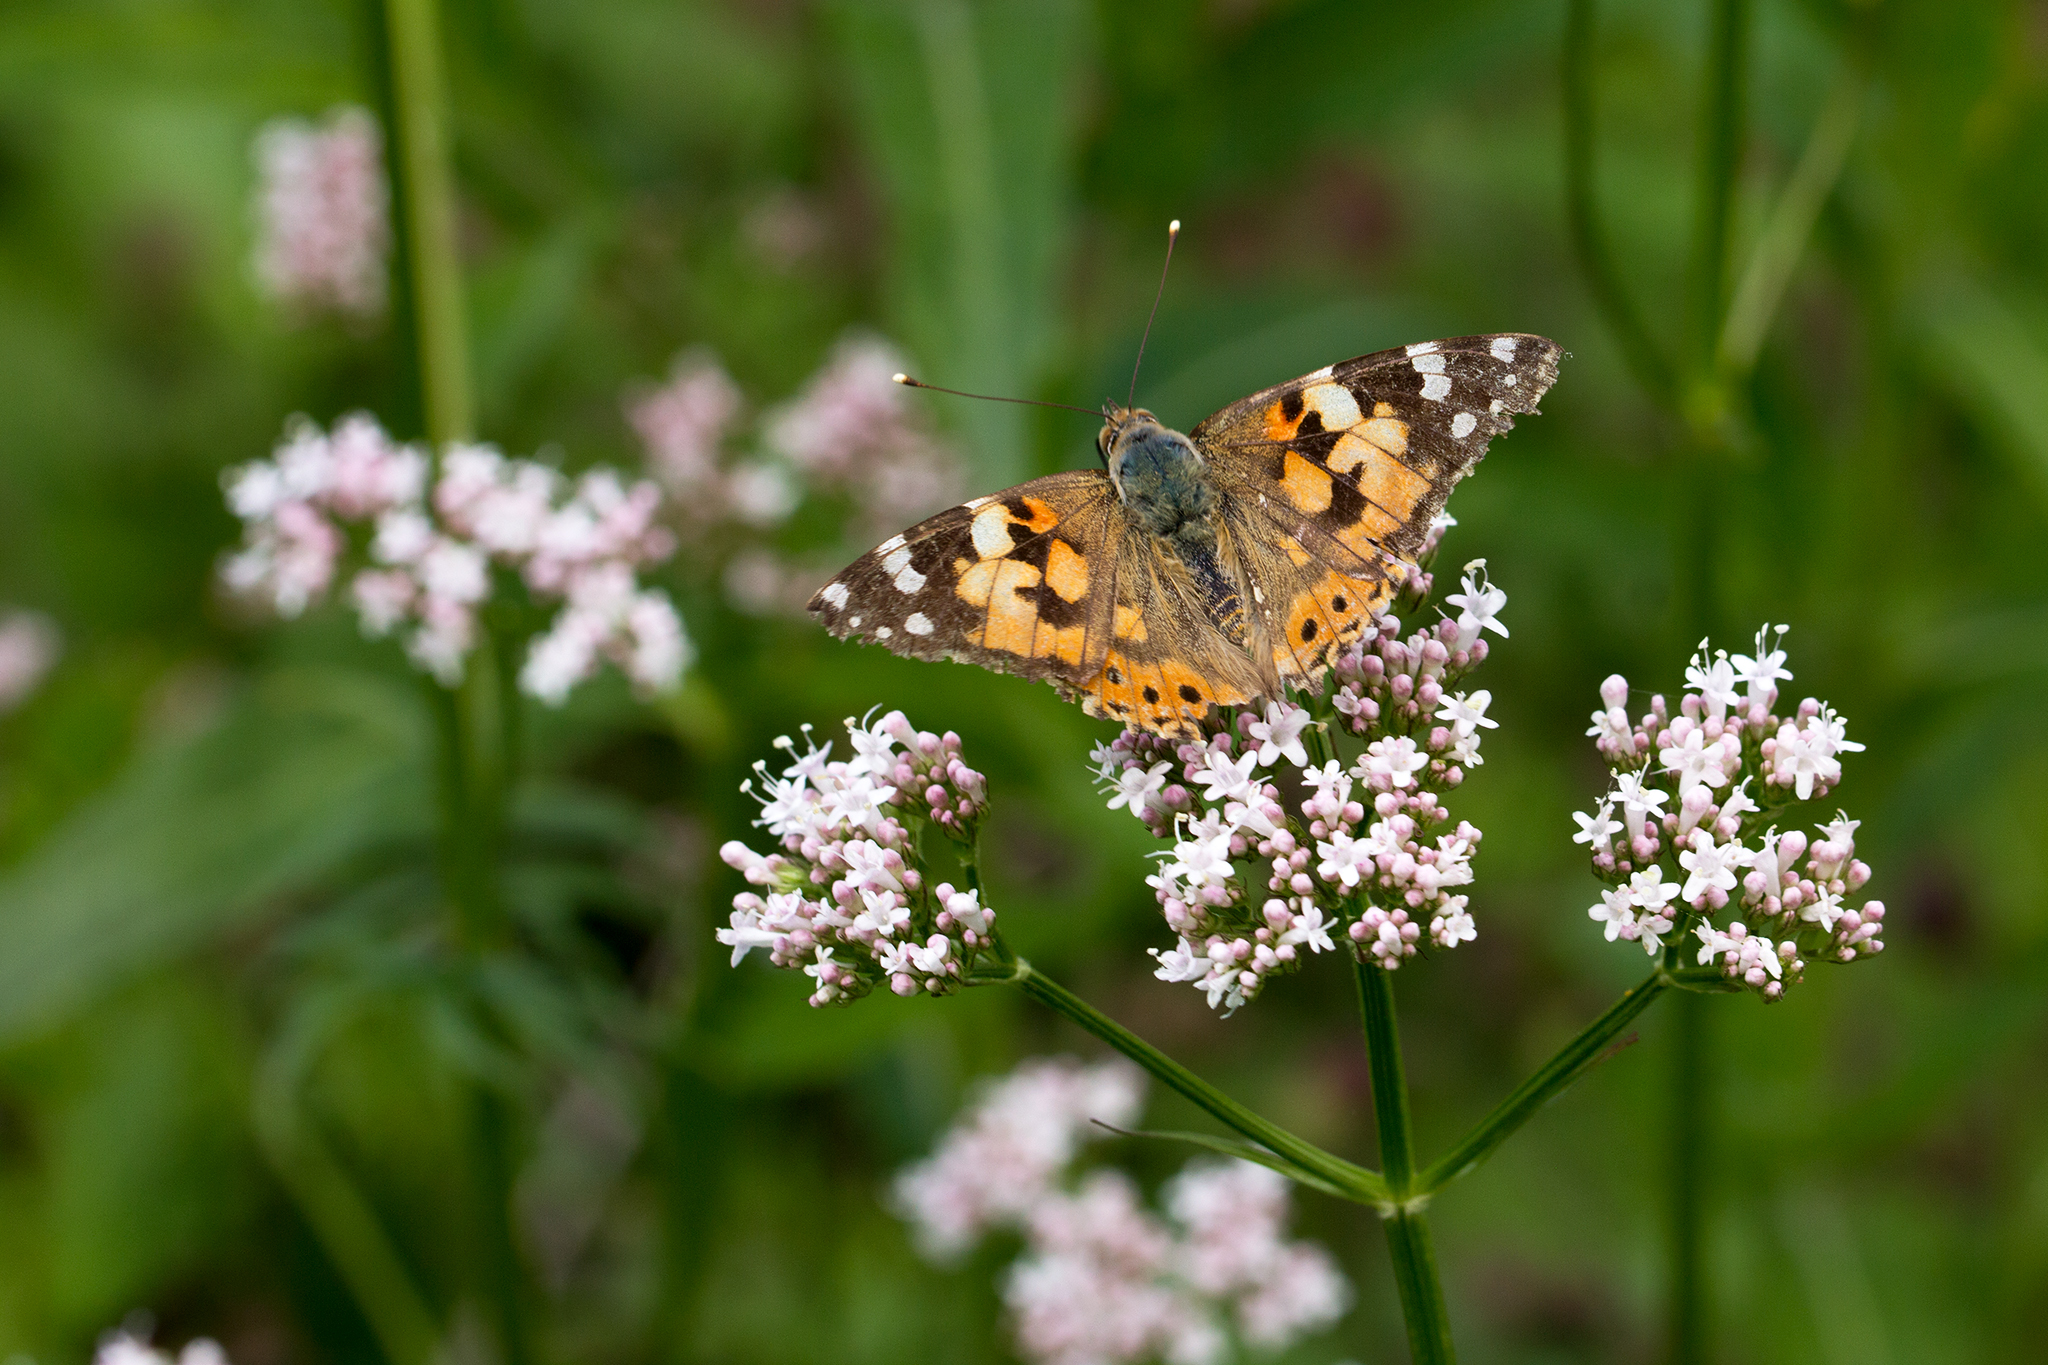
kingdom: Animalia
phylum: Arthropoda
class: Insecta
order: Lepidoptera
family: Nymphalidae
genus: Vanessa
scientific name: Vanessa cardui
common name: Painted lady
